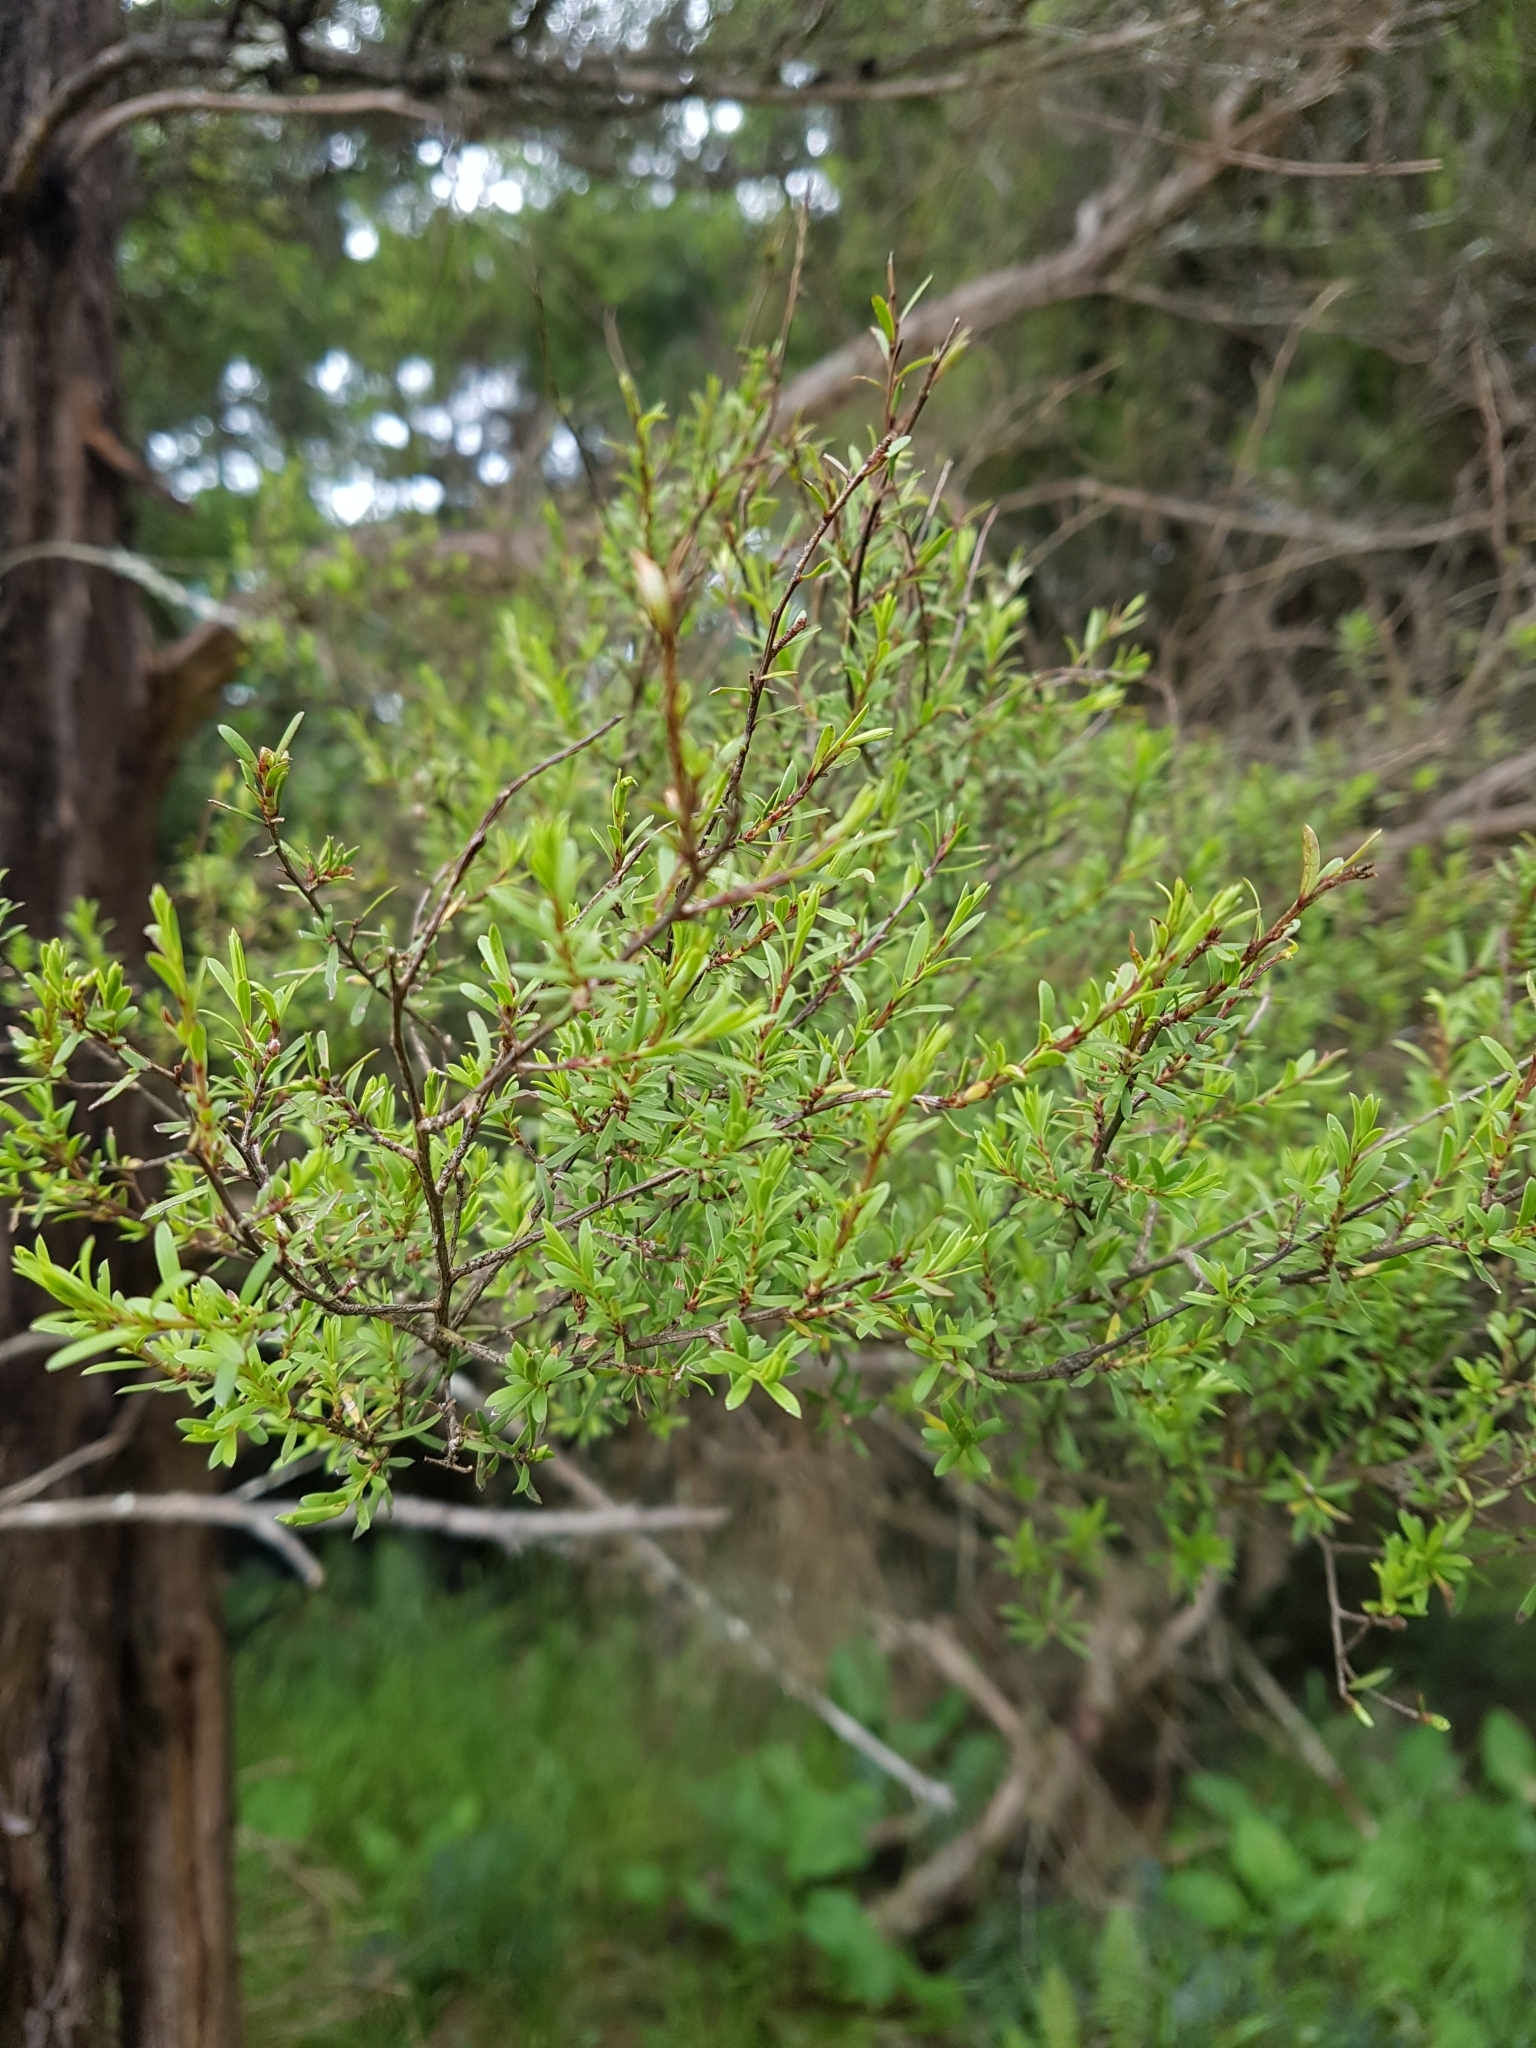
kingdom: Plantae
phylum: Tracheophyta
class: Magnoliopsida
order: Myrtales
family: Myrtaceae
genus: Leptospermum
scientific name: Leptospermum scoparium
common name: Broom tea-tree
